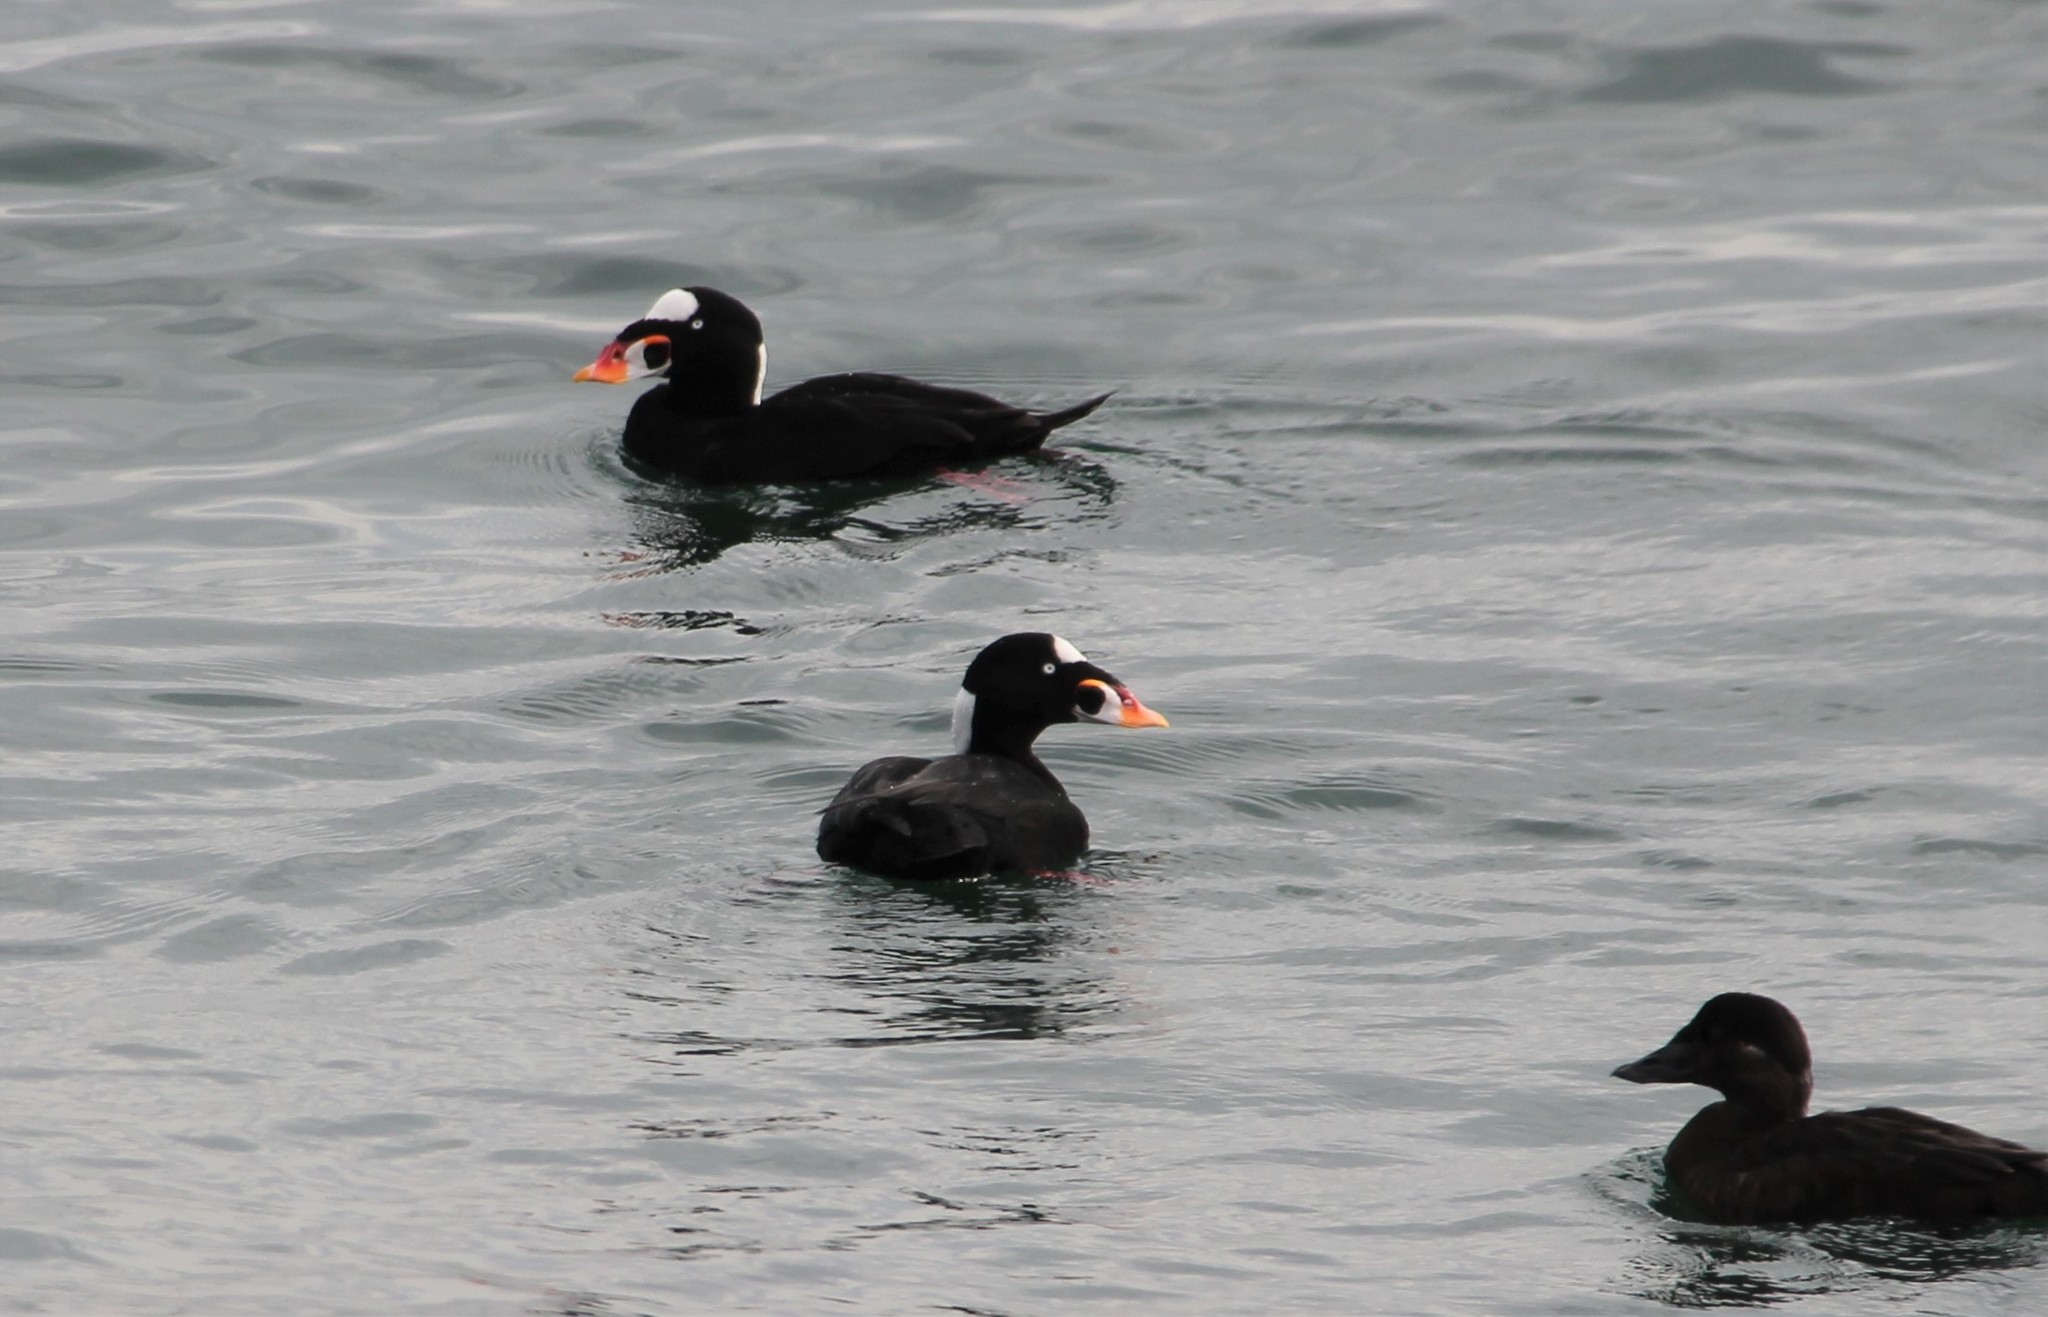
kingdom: Animalia
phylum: Chordata
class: Aves
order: Anseriformes
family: Anatidae
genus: Melanitta
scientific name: Melanitta perspicillata
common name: Surf scoter
